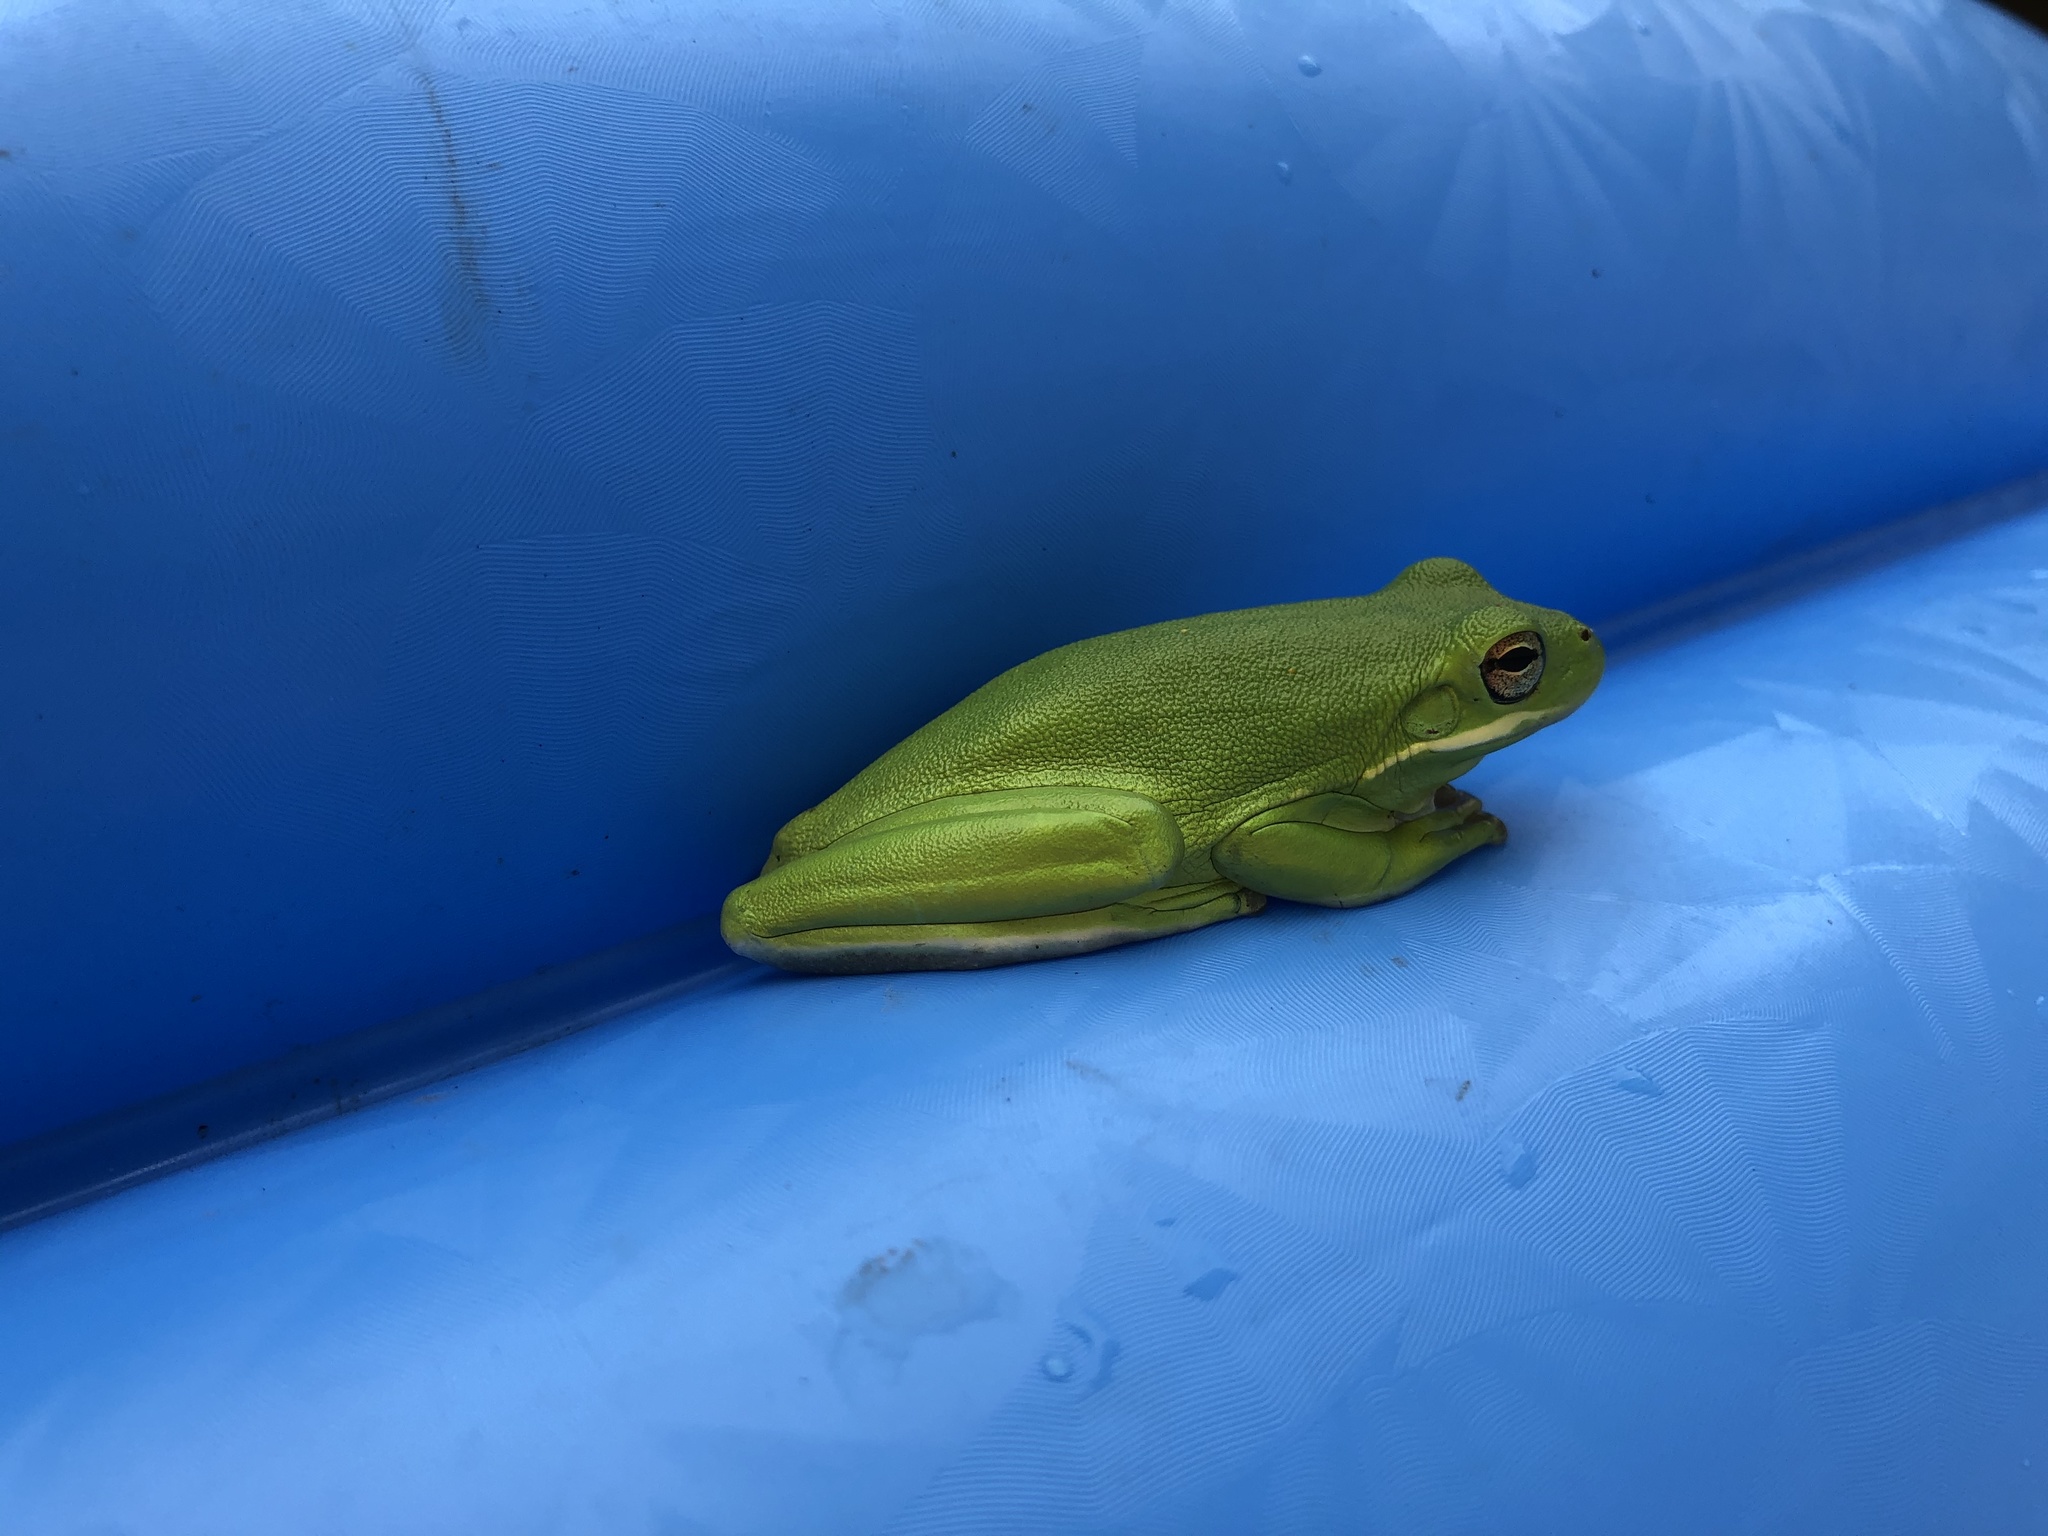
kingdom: Animalia
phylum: Chordata
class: Amphibia
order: Anura
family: Hylidae
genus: Dryophytes
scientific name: Dryophytes cinereus
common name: Green treefrog
